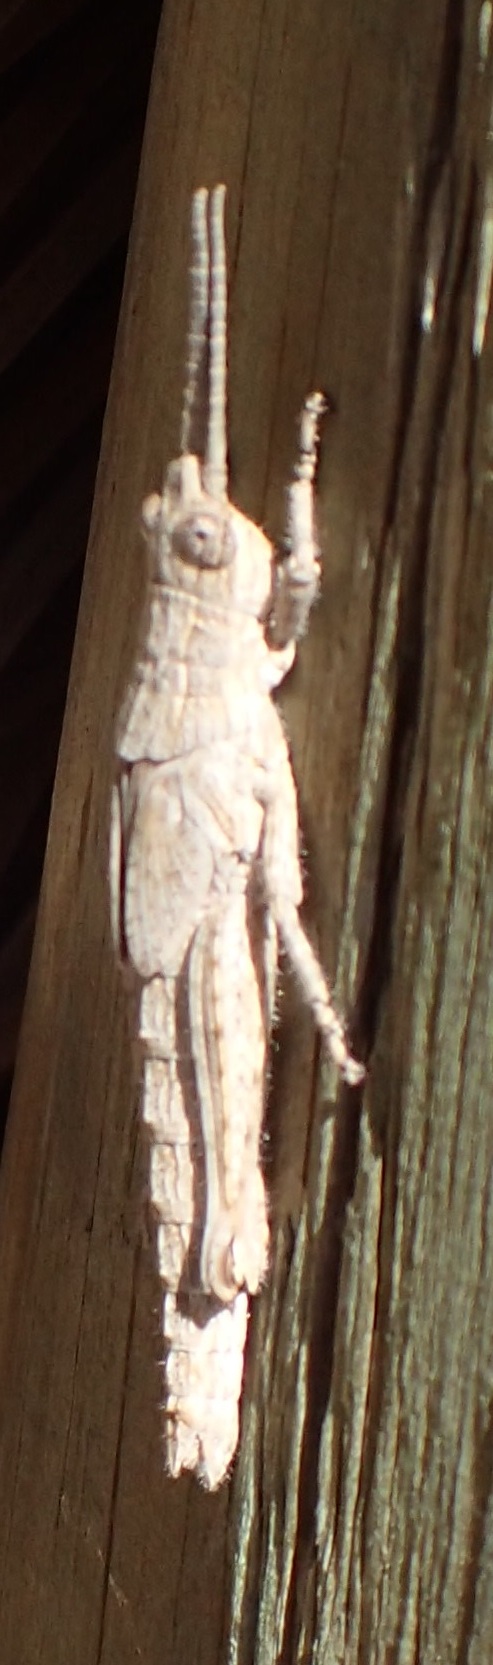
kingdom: Animalia
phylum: Arthropoda
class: Insecta
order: Orthoptera
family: Acrididae
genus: Coryphistes
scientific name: Coryphistes ruricola
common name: Bark-mimicking grasshopper
